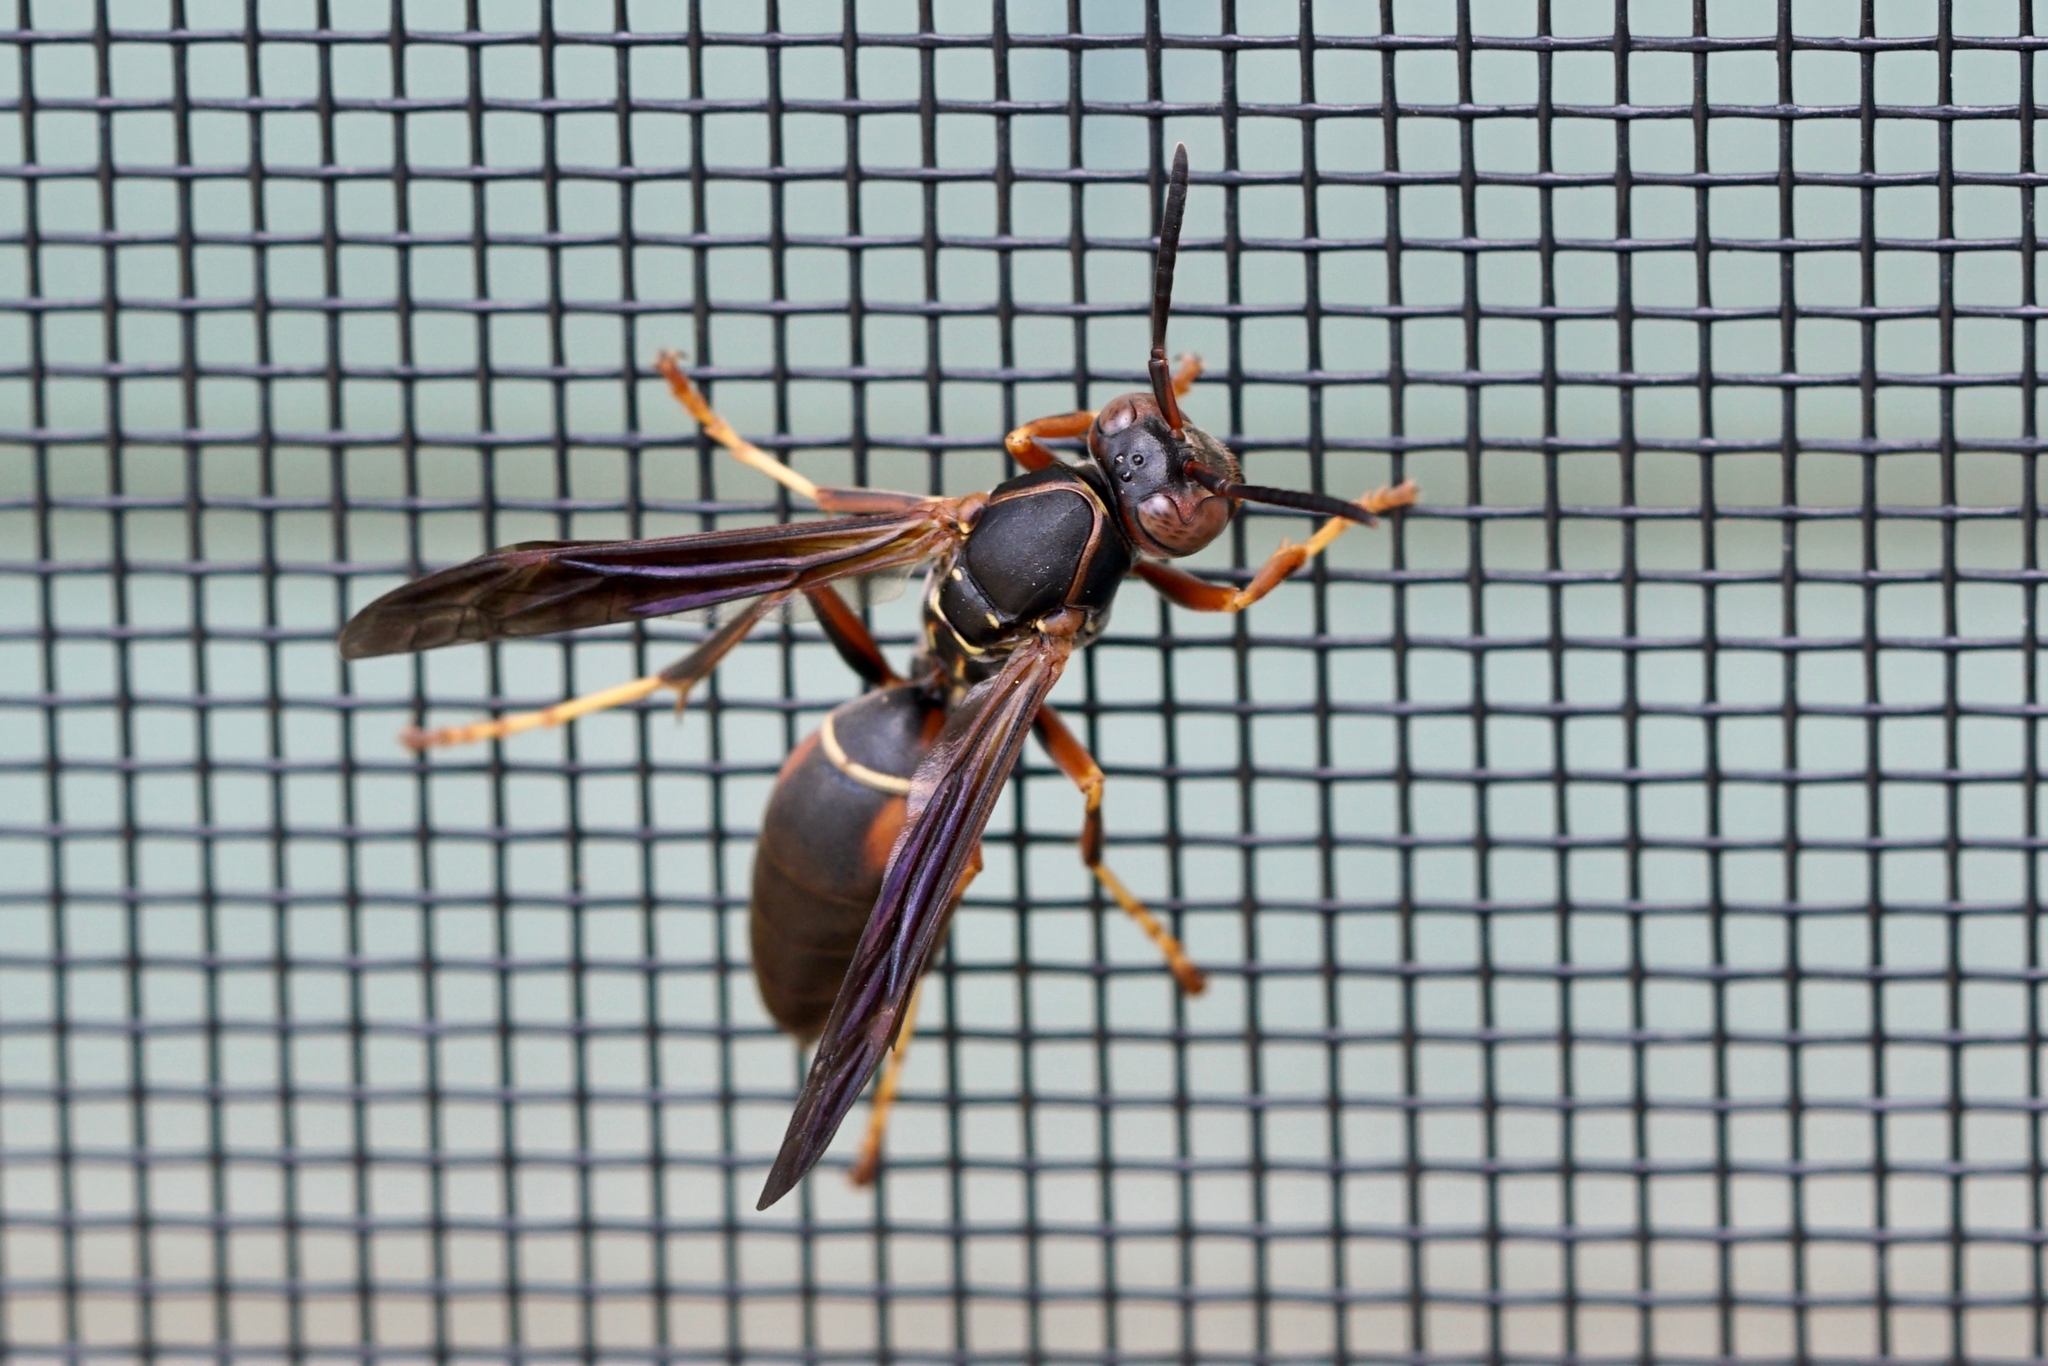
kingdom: Animalia
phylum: Arthropoda
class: Insecta
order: Hymenoptera
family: Eumenidae
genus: Polistes
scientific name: Polistes fuscatus
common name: Dark paper wasp
